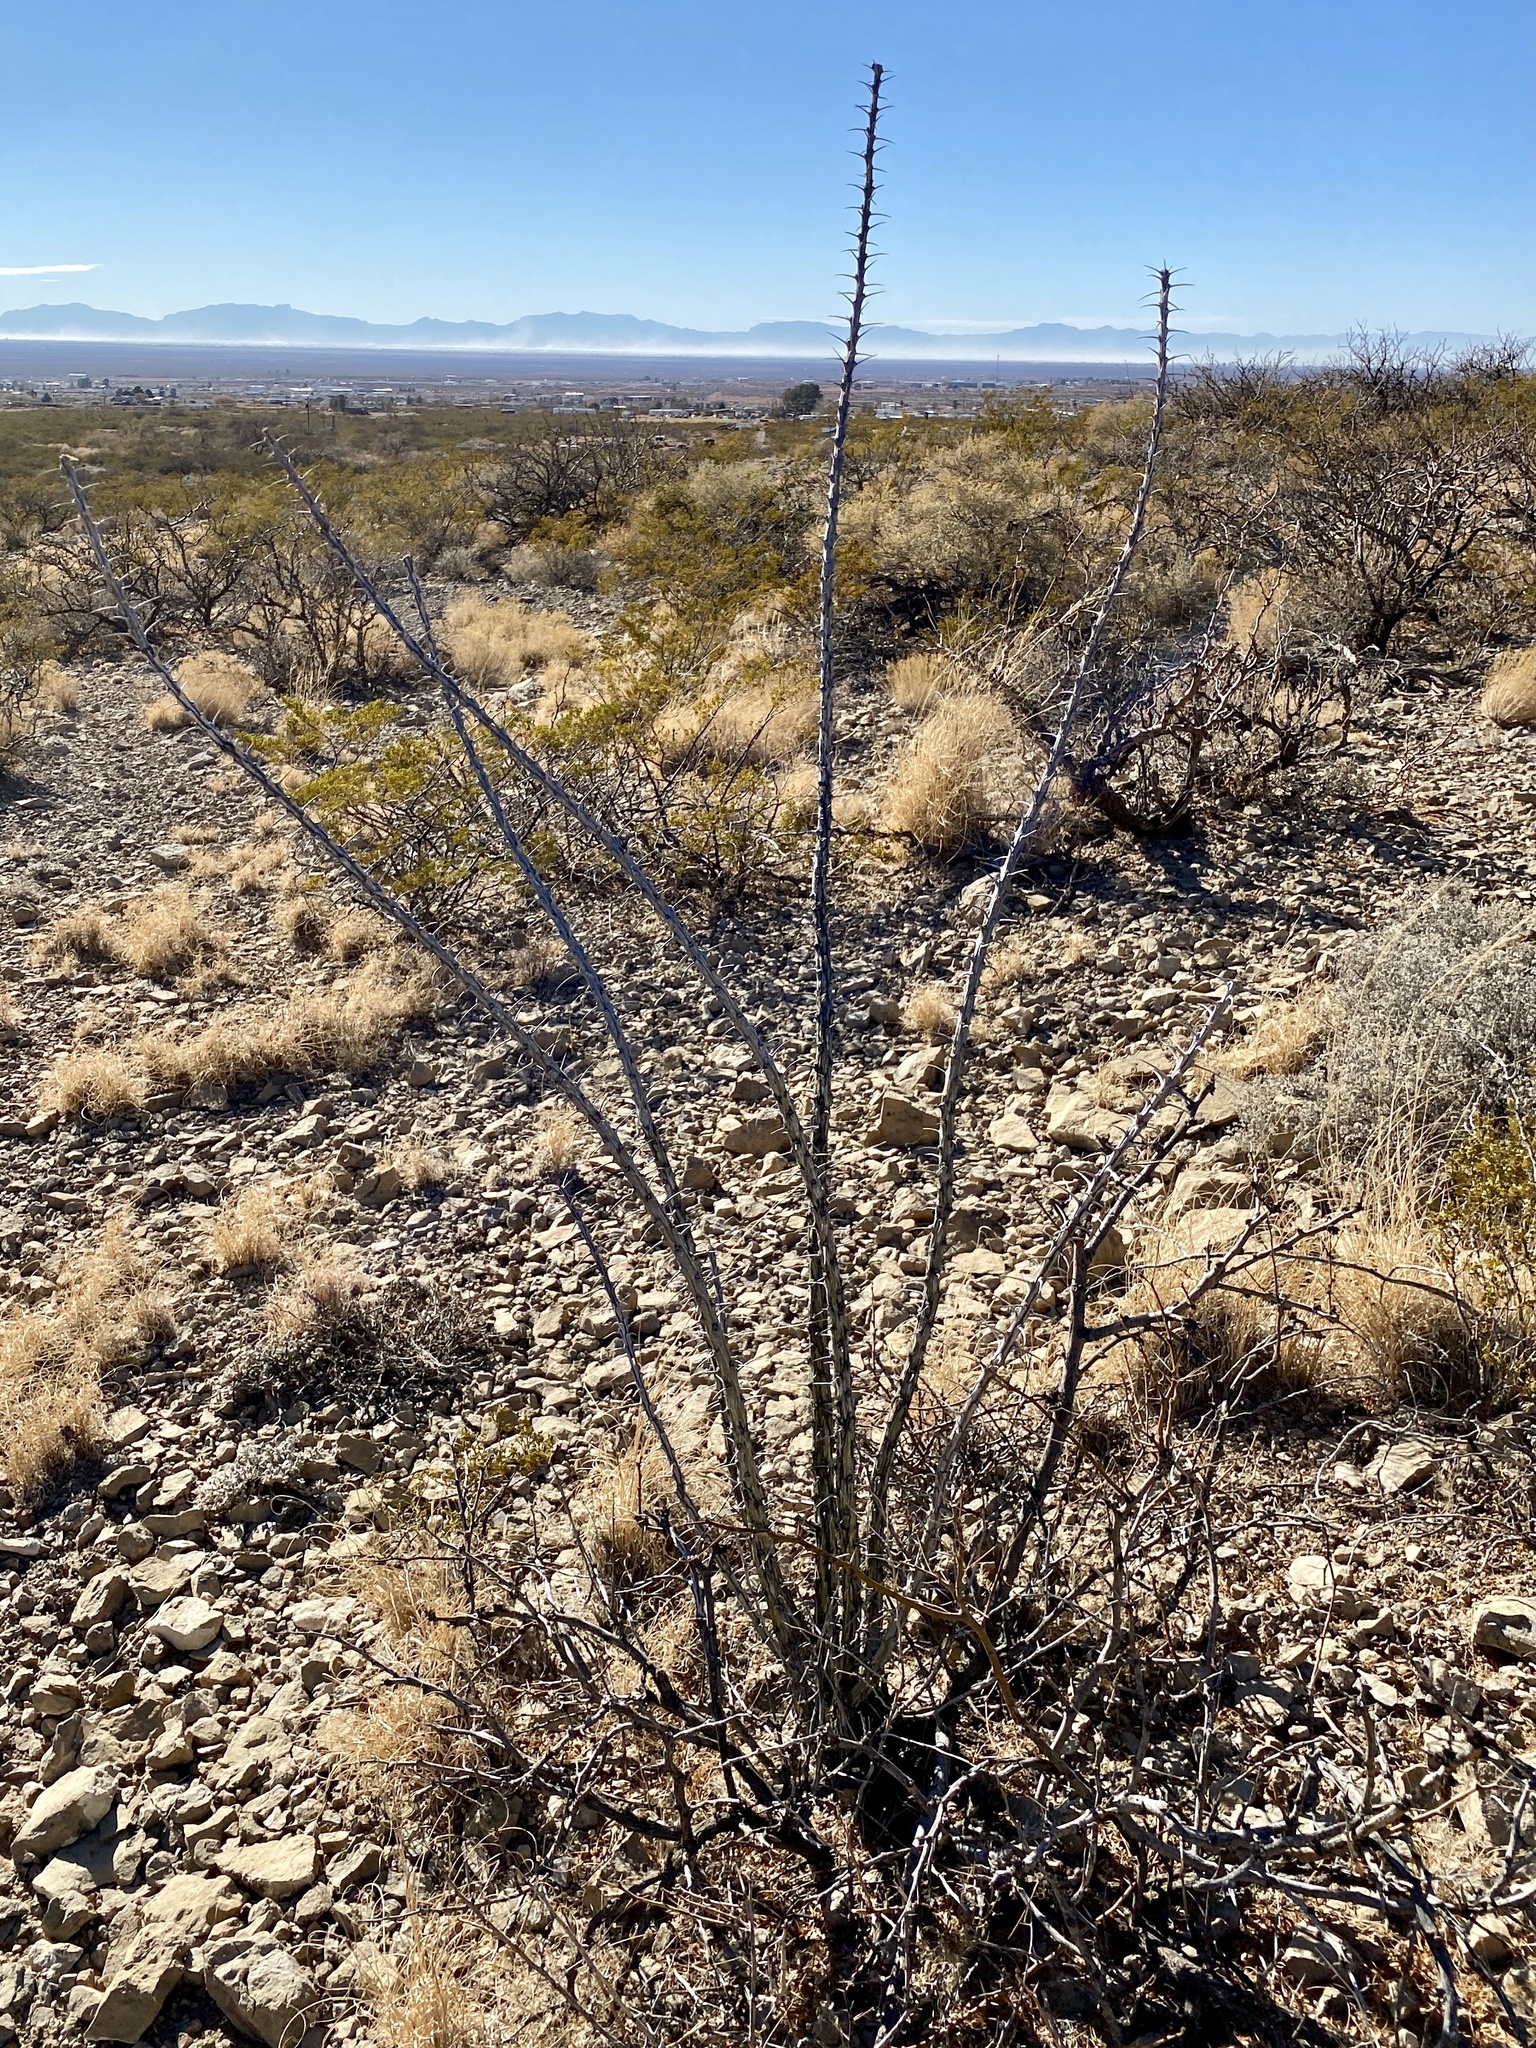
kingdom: Plantae
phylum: Tracheophyta
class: Magnoliopsida
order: Ericales
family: Fouquieriaceae
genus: Fouquieria
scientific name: Fouquieria splendens
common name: Vine-cactus
